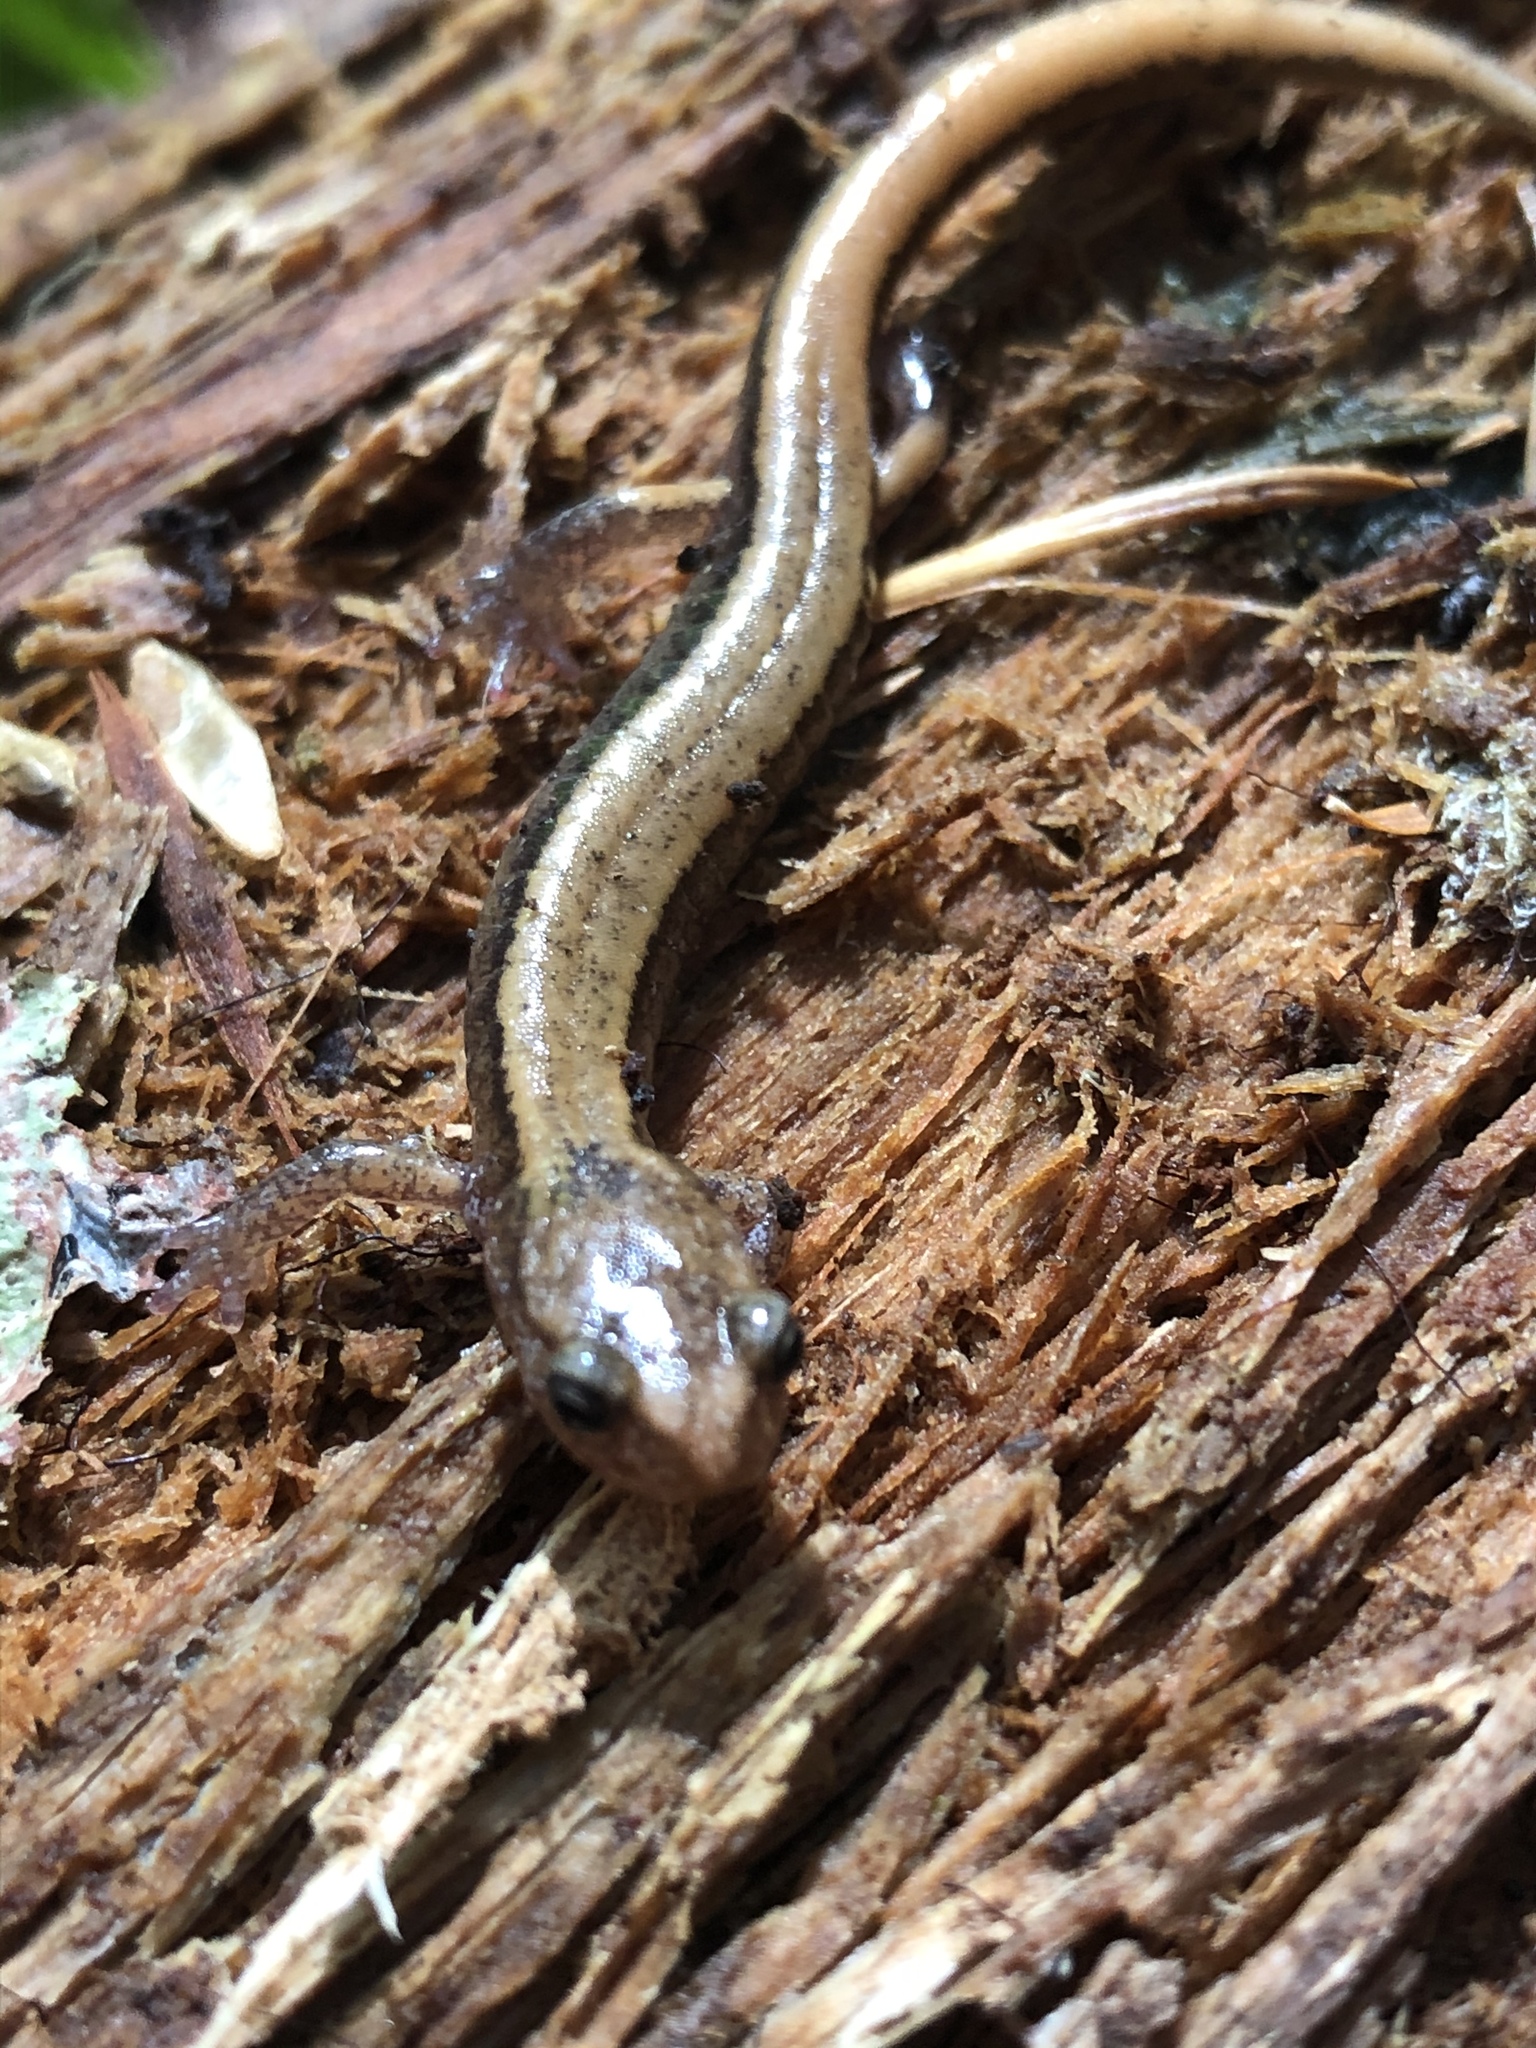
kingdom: Animalia
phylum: Chordata
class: Amphibia
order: Caudata
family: Plethodontidae
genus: Plethodon
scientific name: Plethodon vehiculum
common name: Western red-backed salamander
